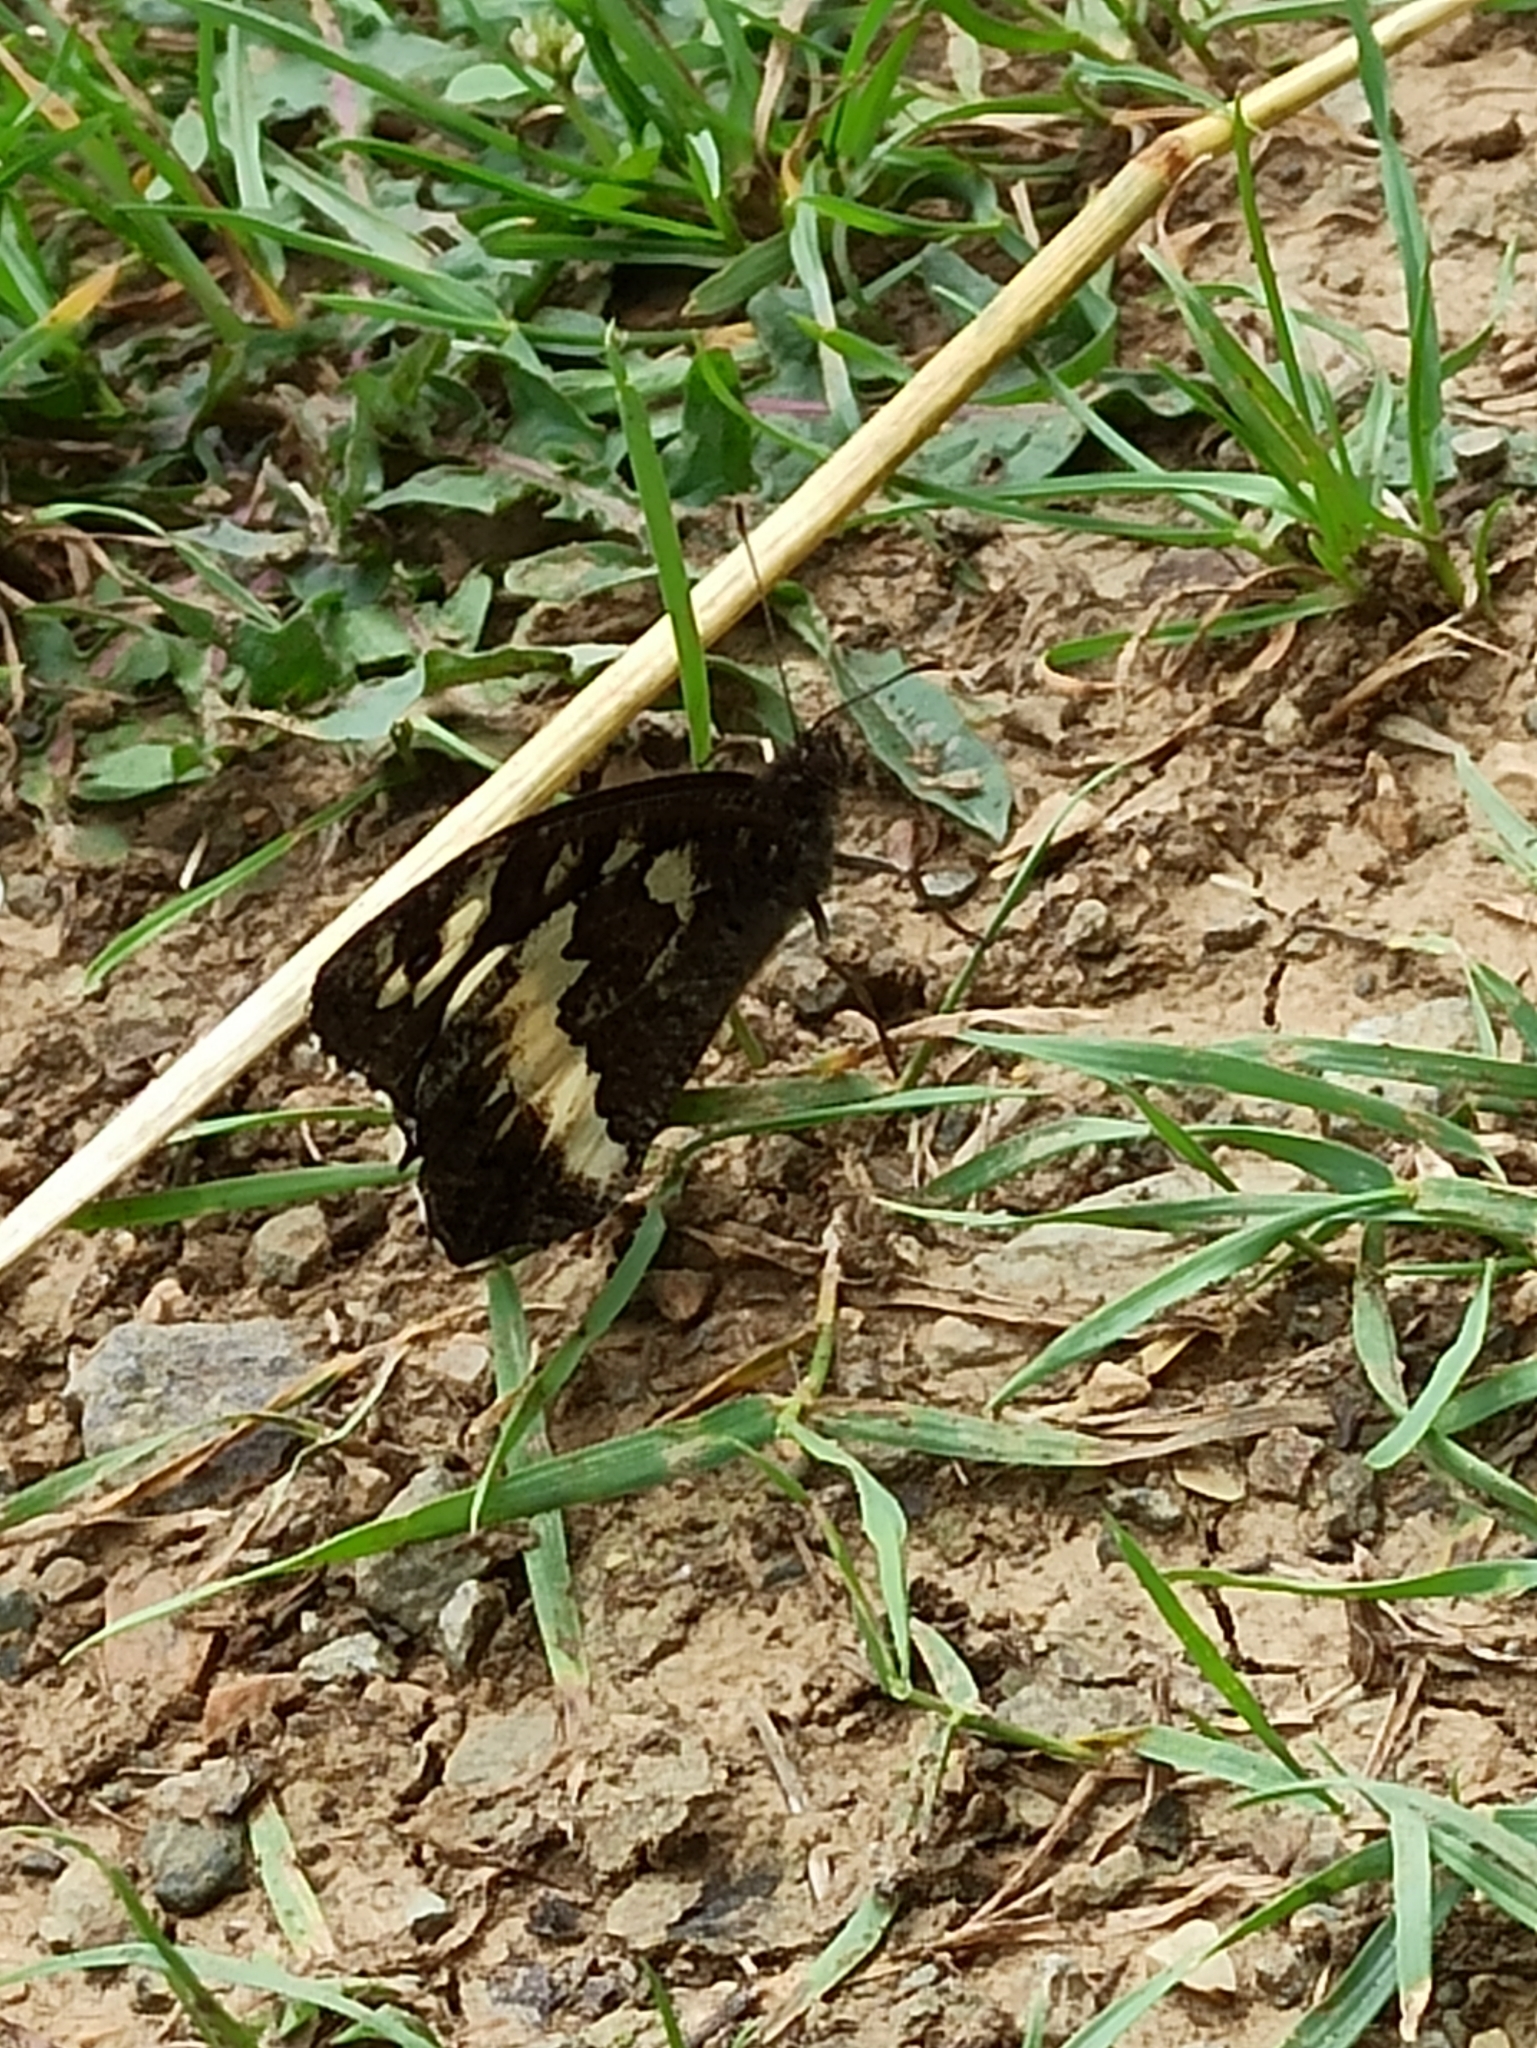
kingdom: Animalia
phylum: Arthropoda
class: Insecta
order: Lepidoptera
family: Lycaenidae
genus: Loweia
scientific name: Loweia tityrus
